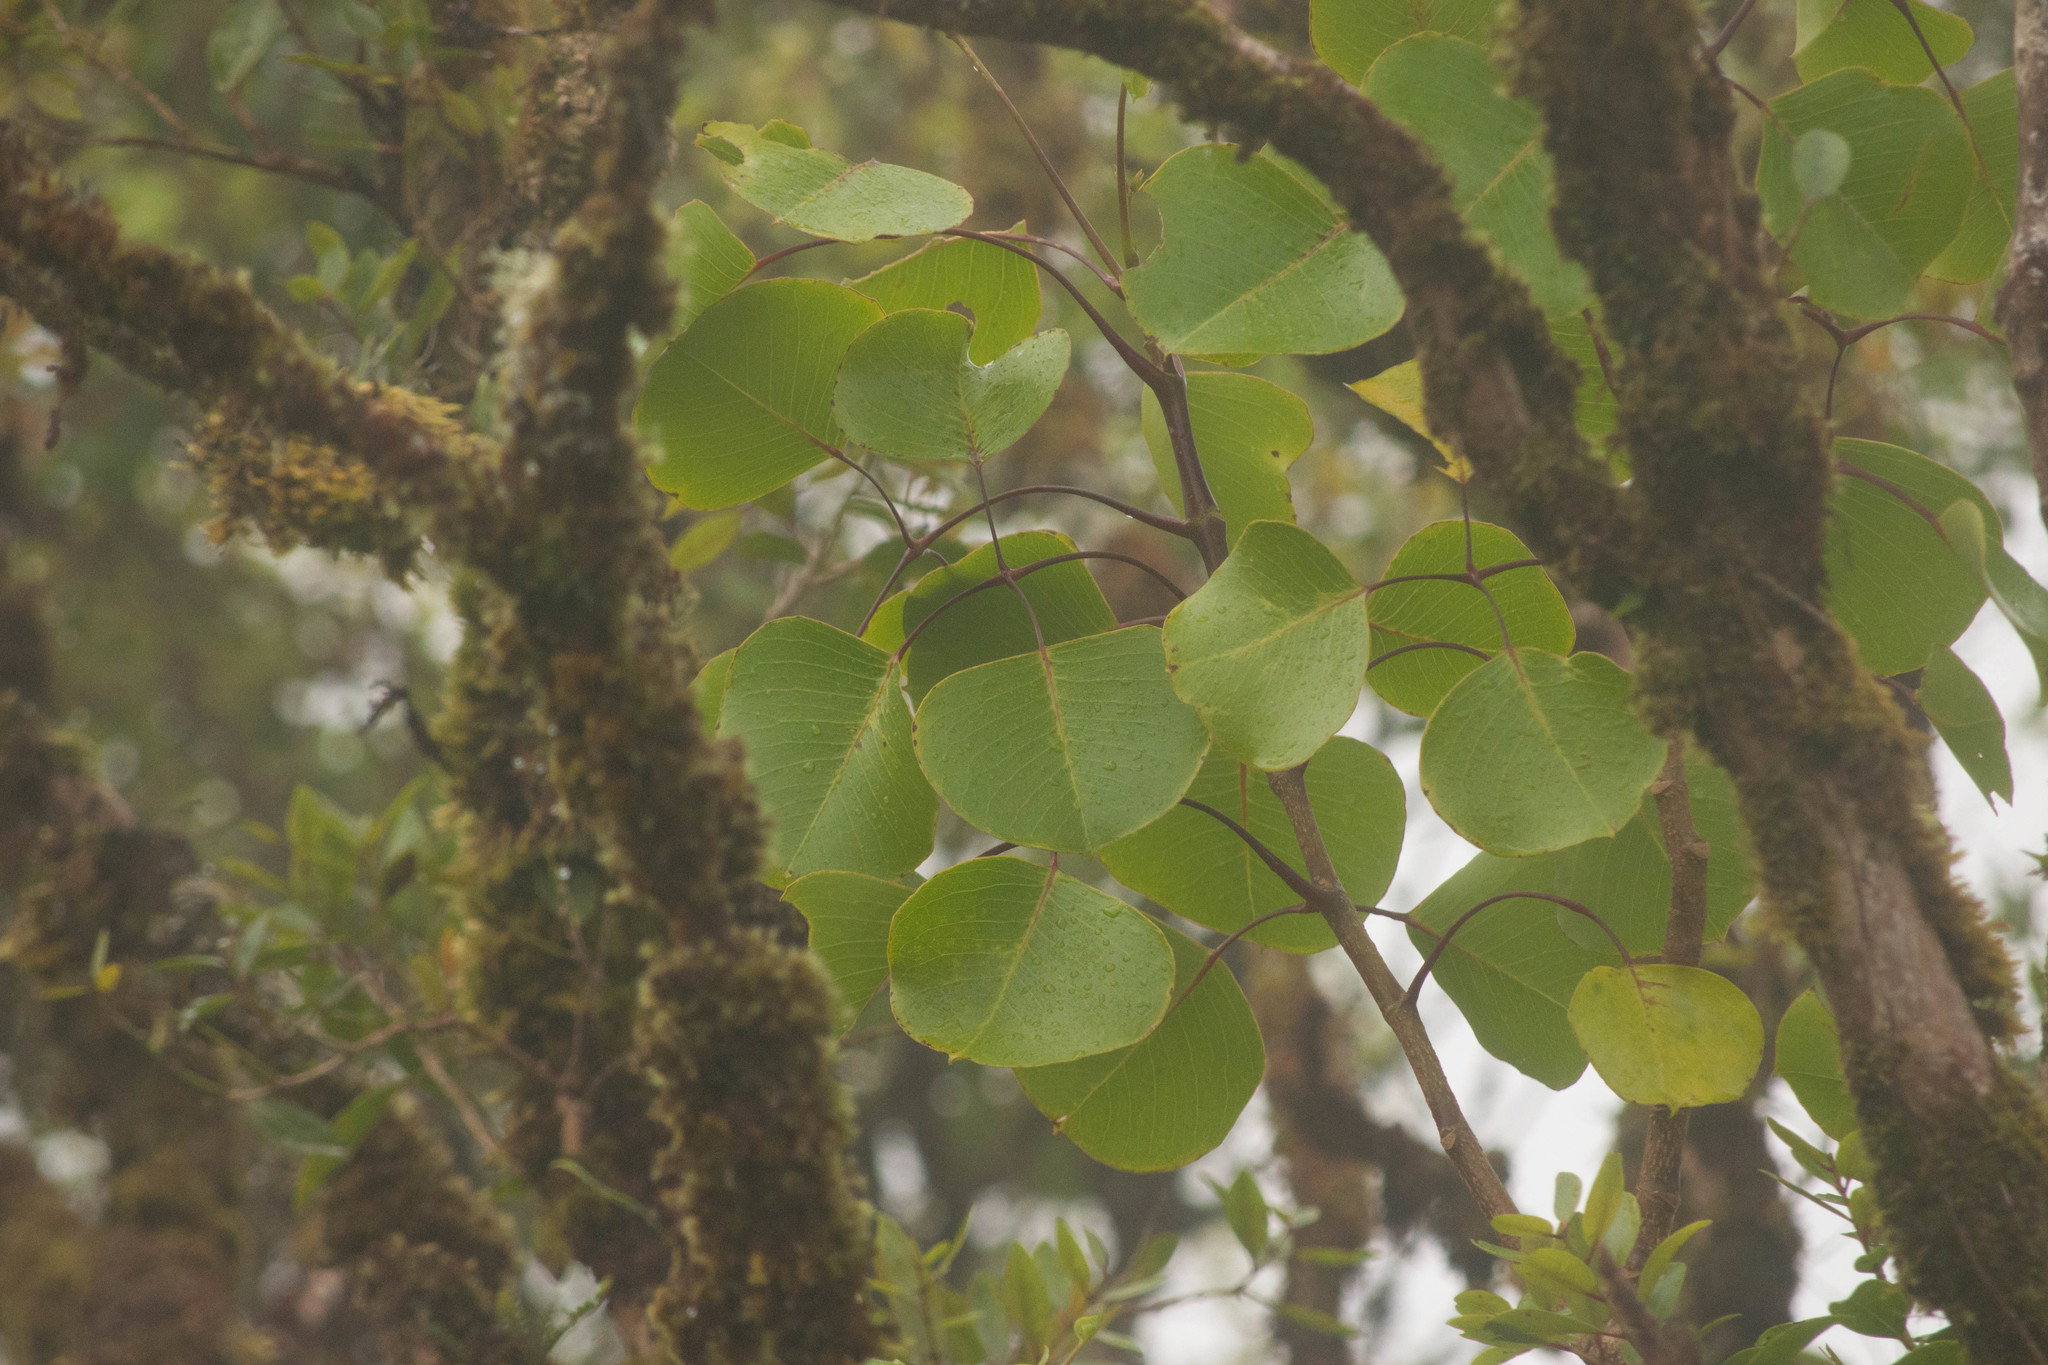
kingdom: Plantae
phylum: Tracheophyta
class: Magnoliopsida
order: Apiales
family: Araliaceae
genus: Cheirodendron
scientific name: Cheirodendron platyphyllum
